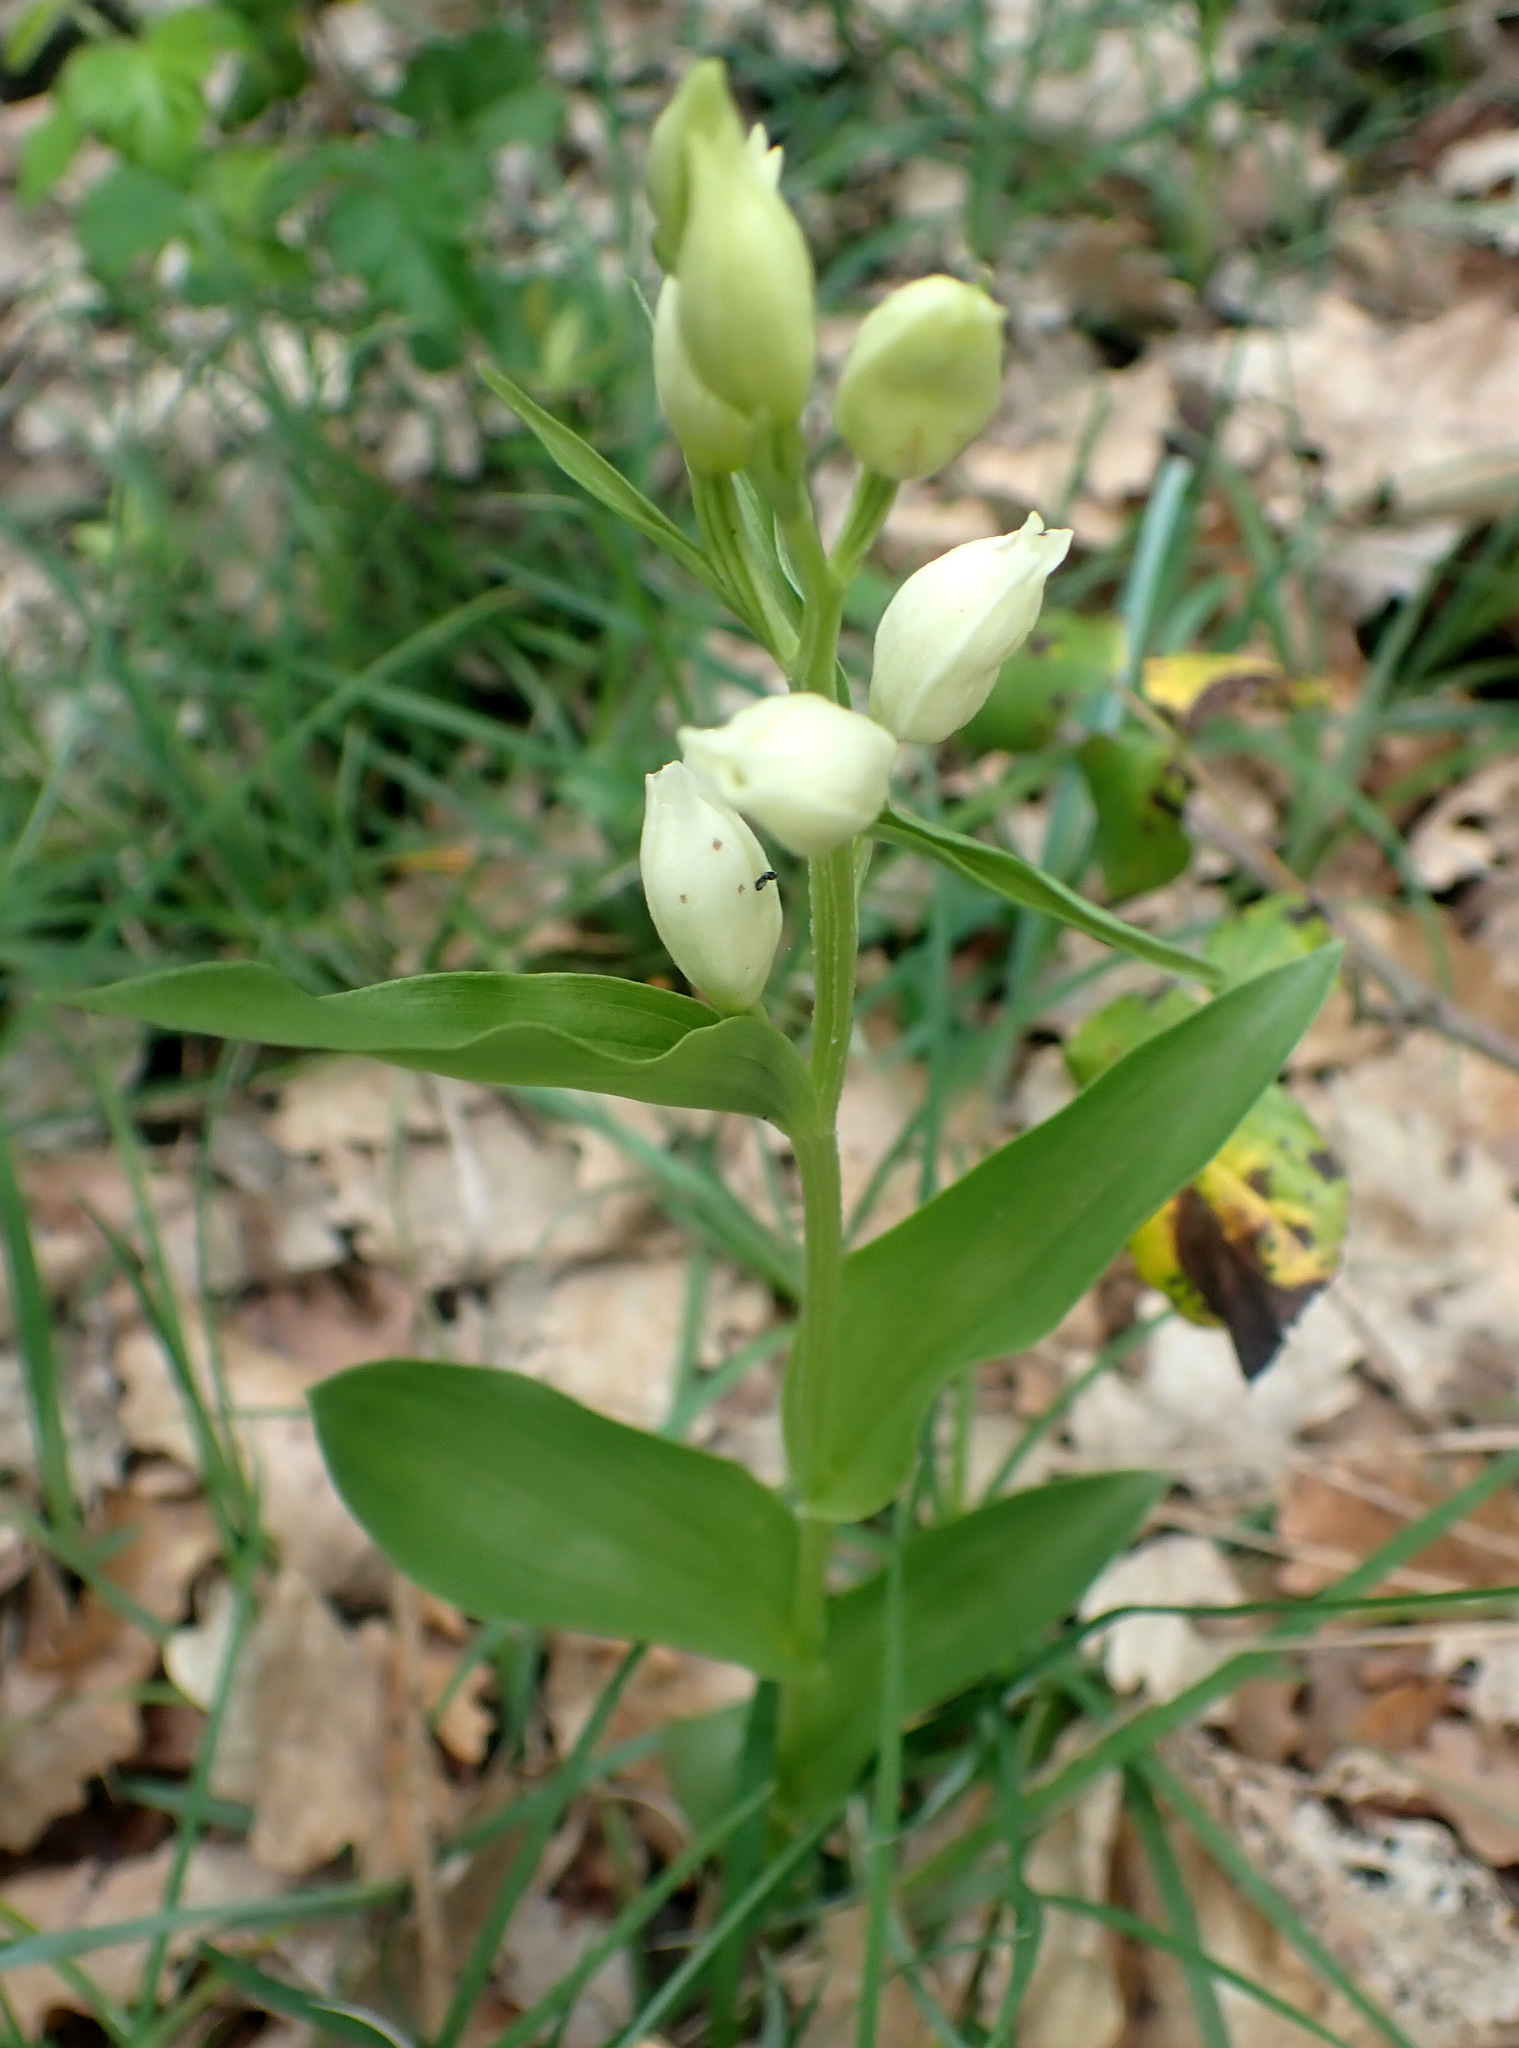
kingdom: Plantae
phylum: Tracheophyta
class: Liliopsida
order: Asparagales
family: Orchidaceae
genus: Cephalanthera
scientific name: Cephalanthera damasonium
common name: White helleborine
